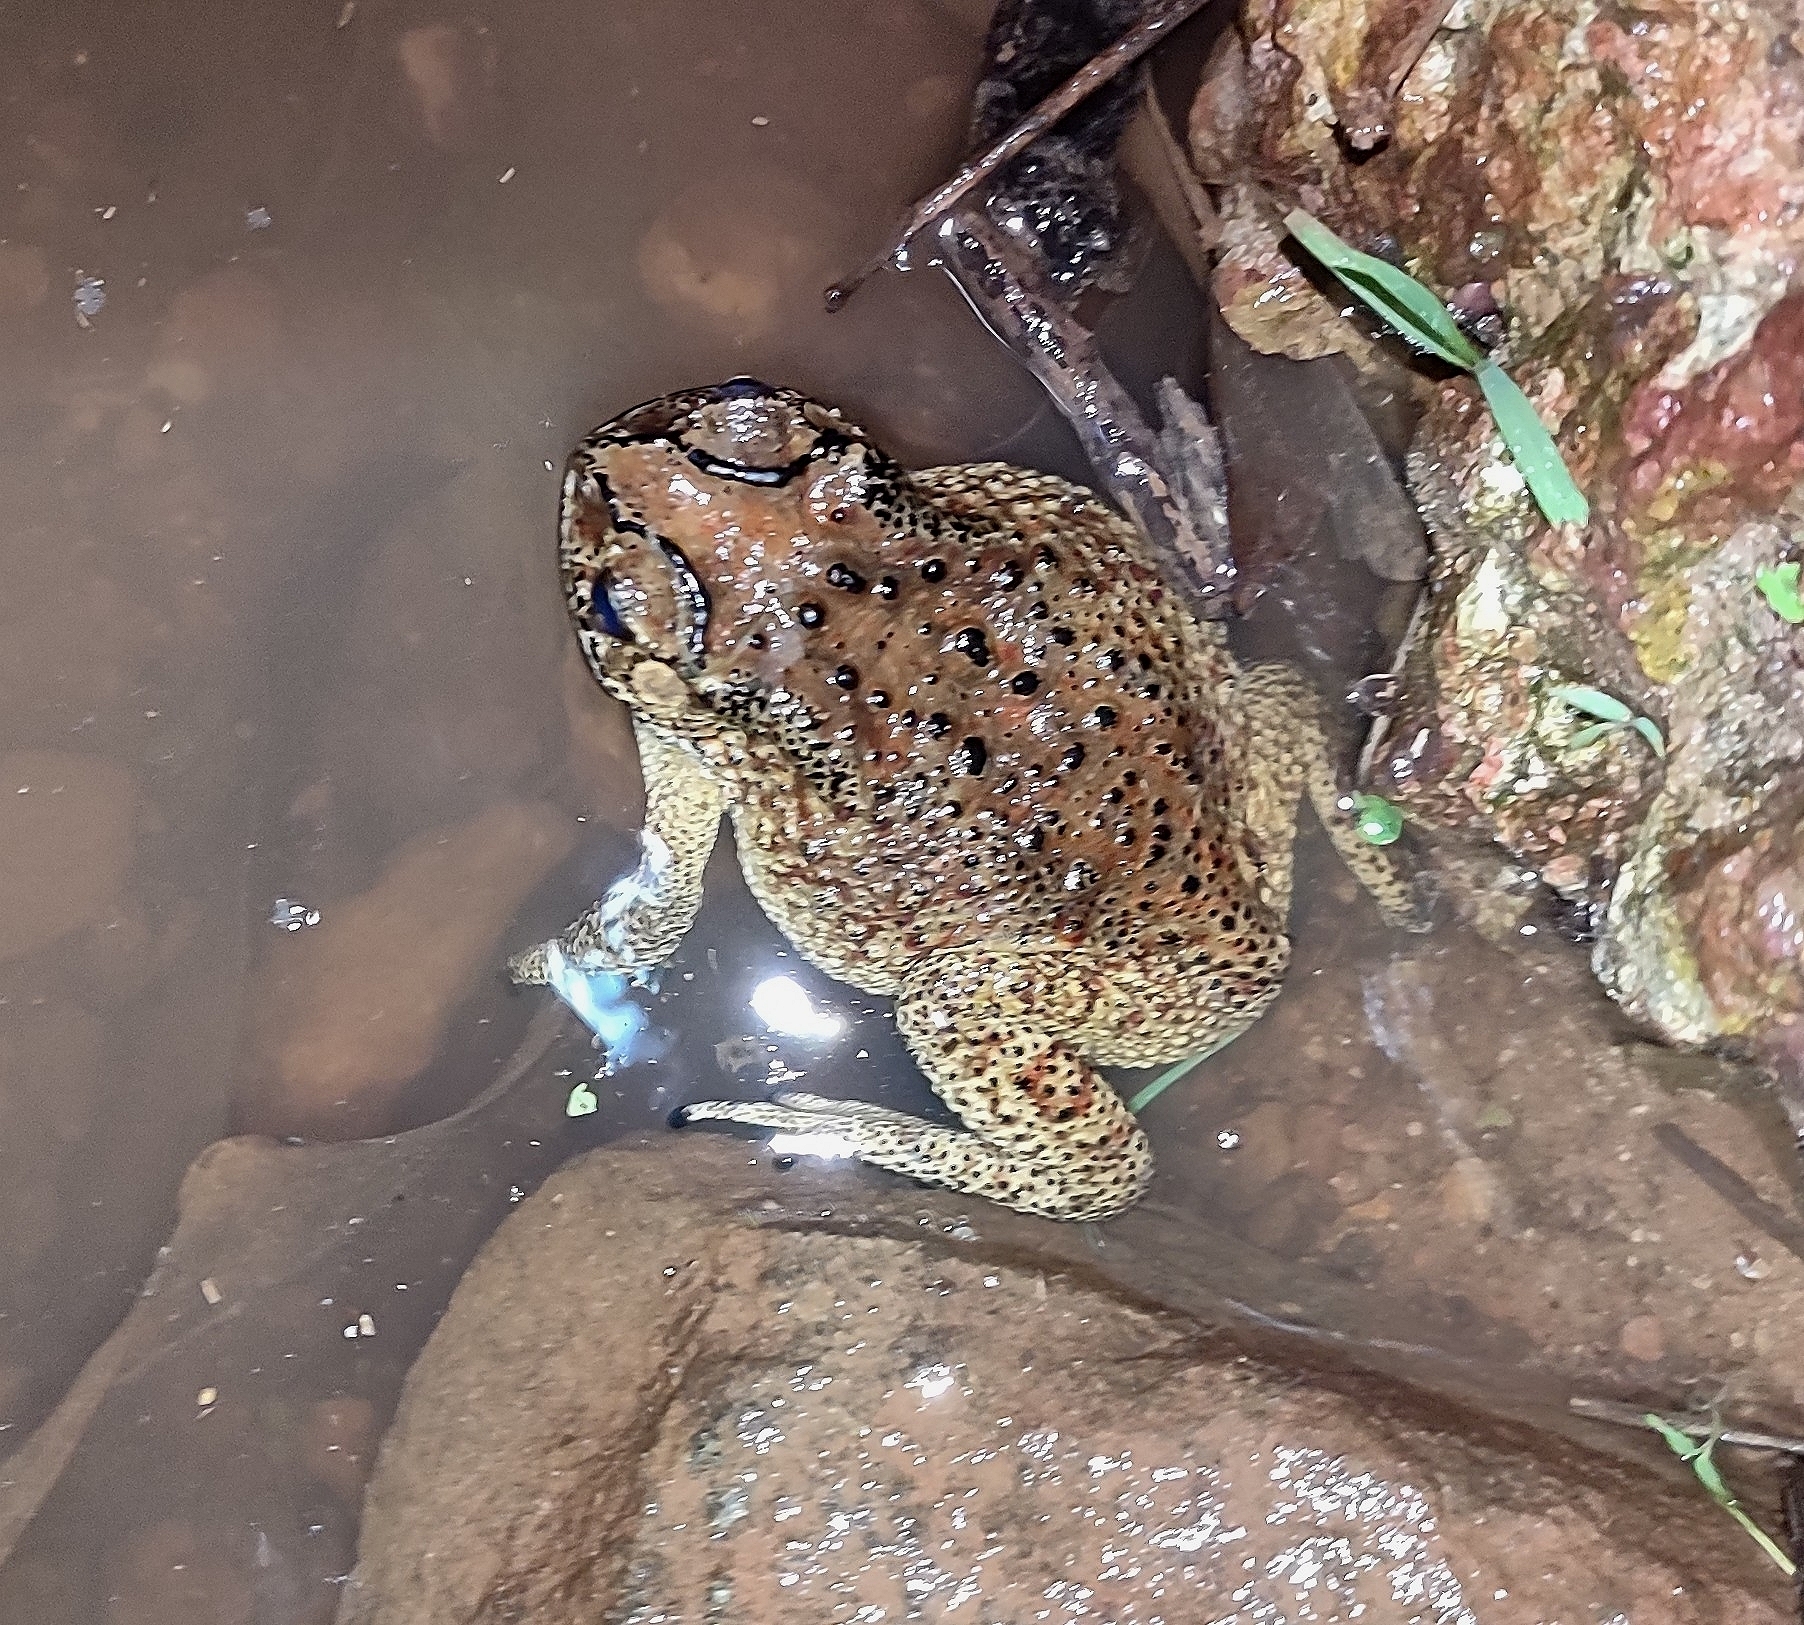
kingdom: Animalia
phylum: Chordata
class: Amphibia
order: Anura
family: Bufonidae
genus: Duttaphrynus
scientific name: Duttaphrynus melanostictus
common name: Common sunda toad
